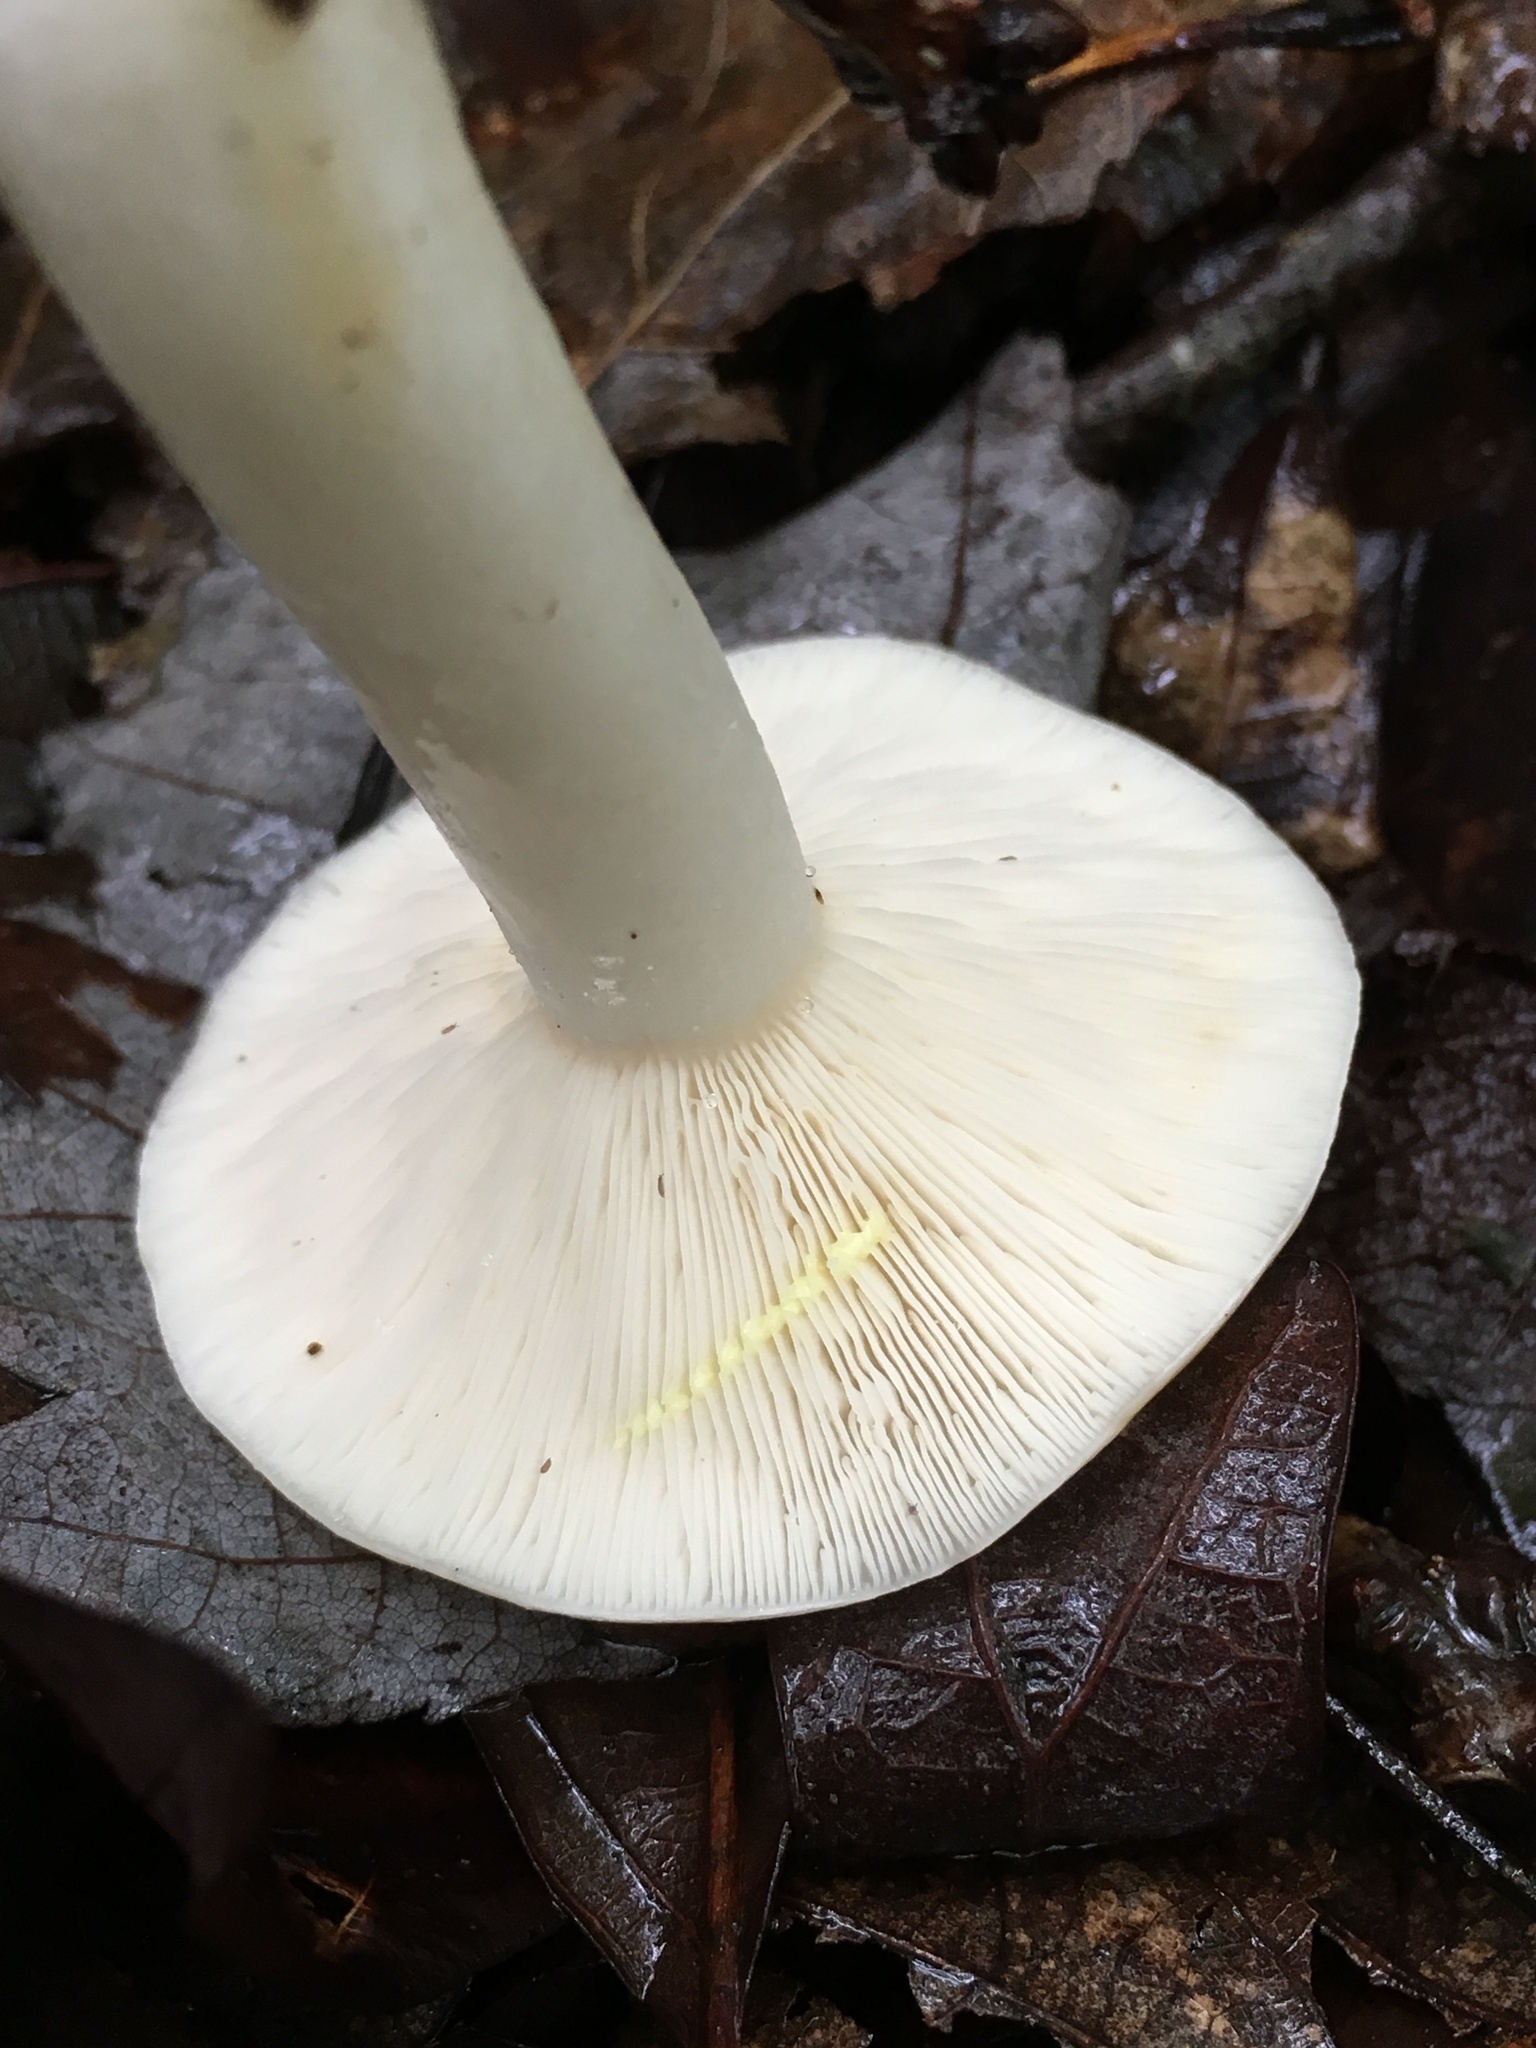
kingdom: Fungi
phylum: Basidiomycota
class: Agaricomycetes
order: Russulales
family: Russulaceae
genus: Lactarius
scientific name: Lactarius chrysorrheus
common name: Yellowdrop milkcap
